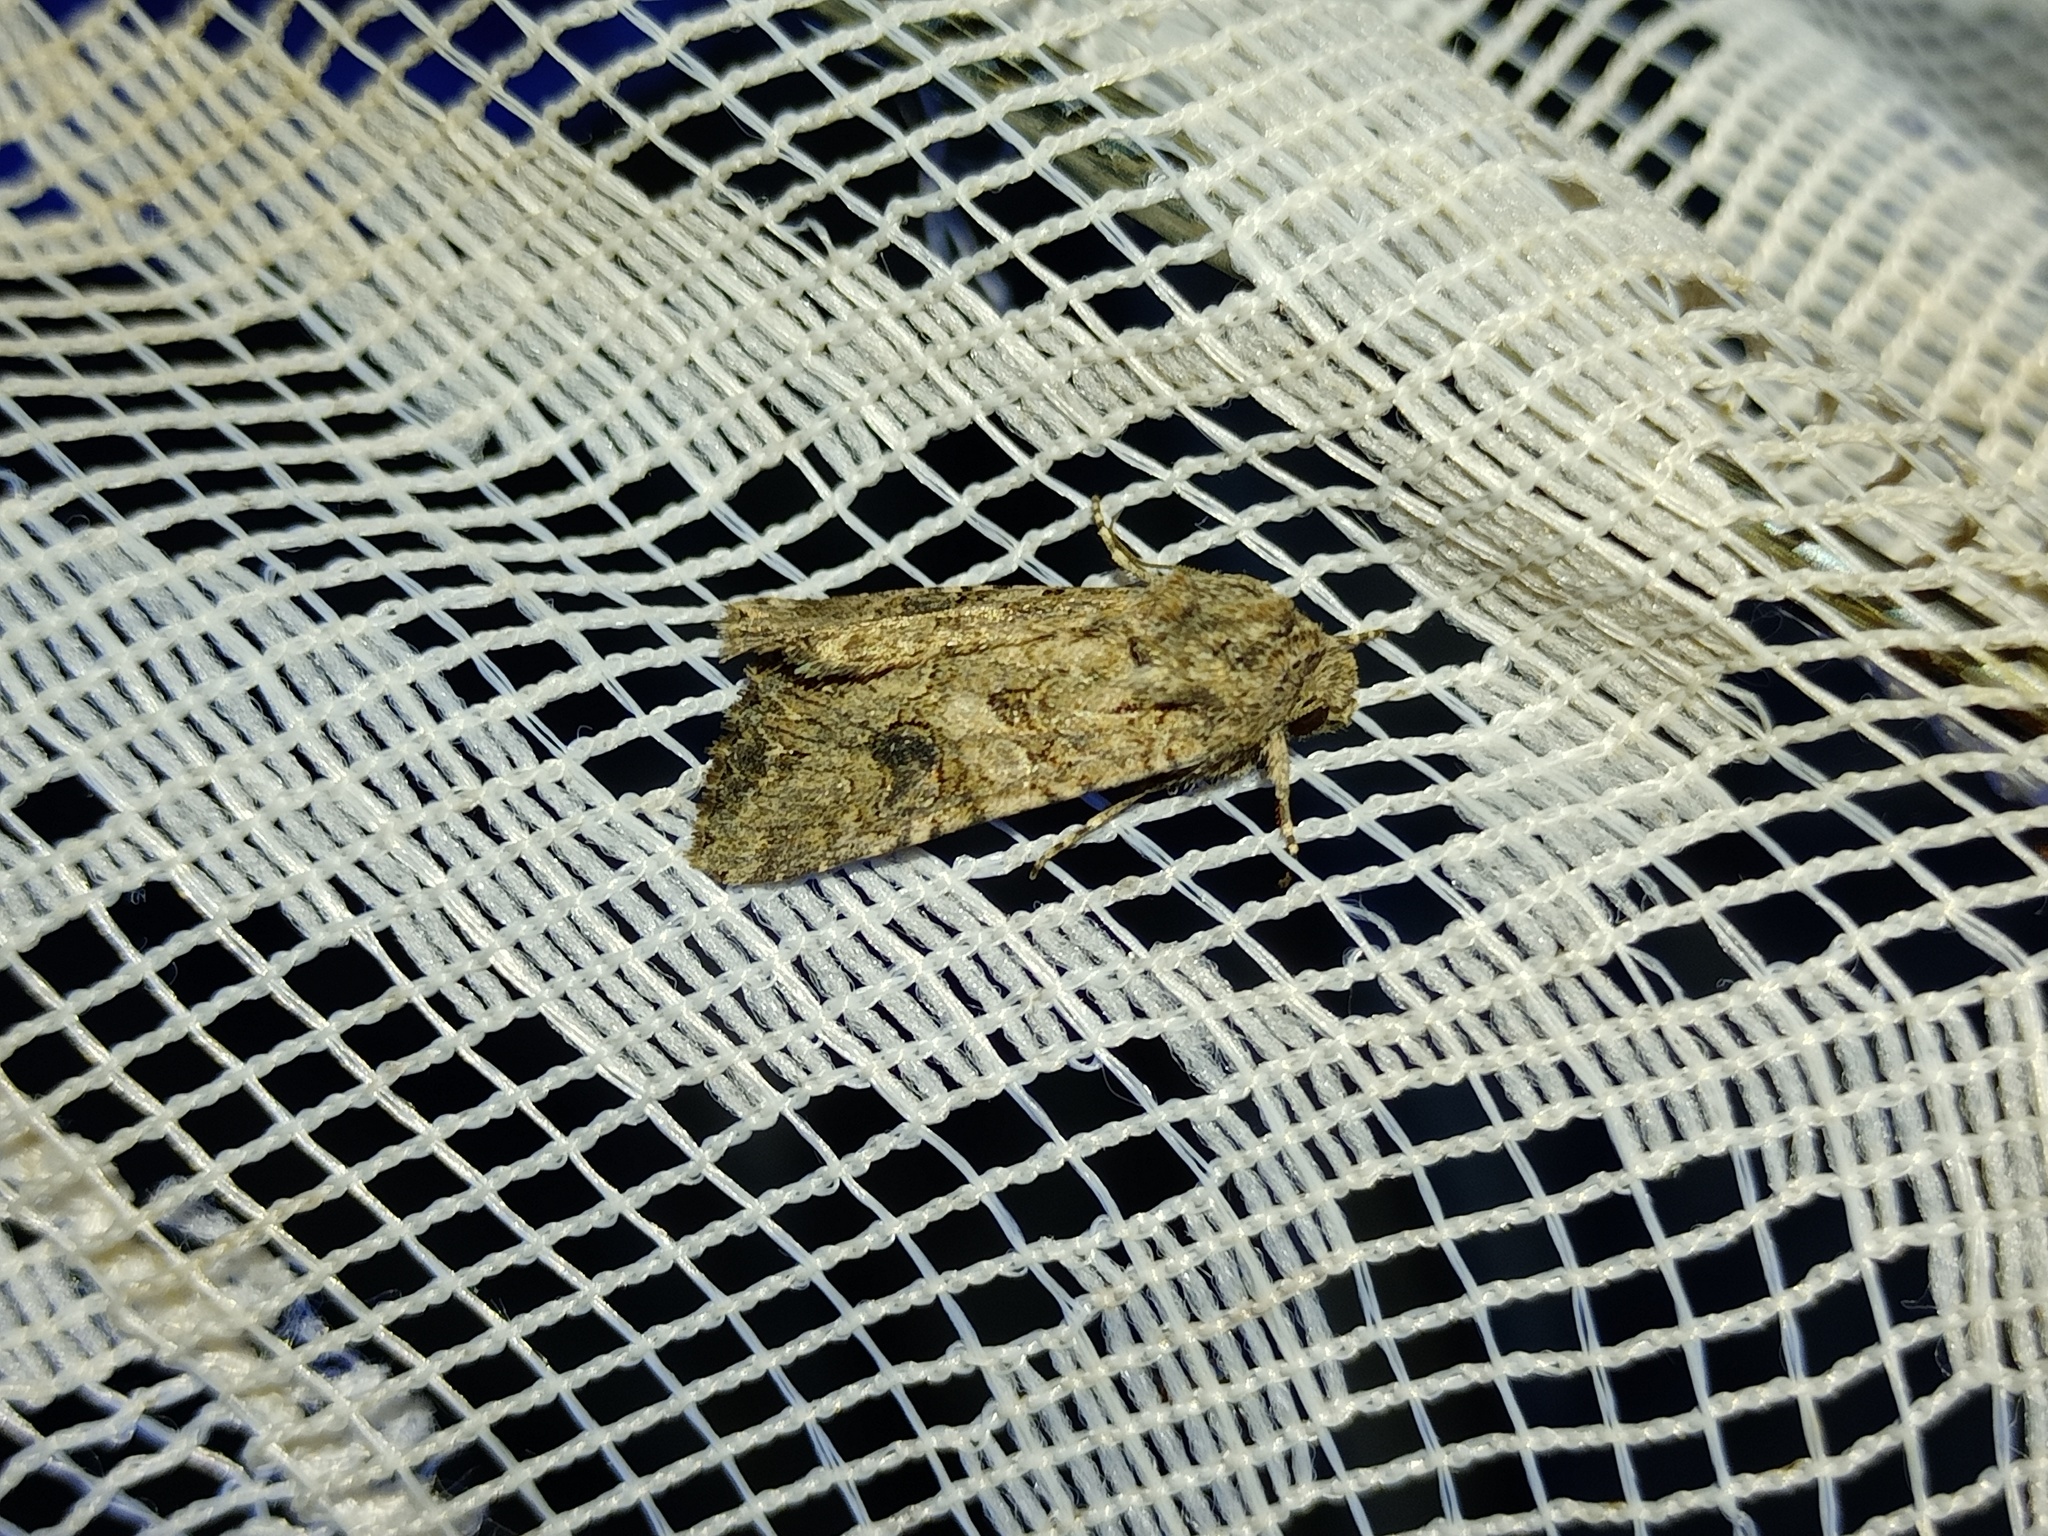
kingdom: Animalia
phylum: Arthropoda
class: Insecta
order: Lepidoptera
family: Noctuidae
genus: Anarta
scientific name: Anarta trifolii
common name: Clover cutworm moth
